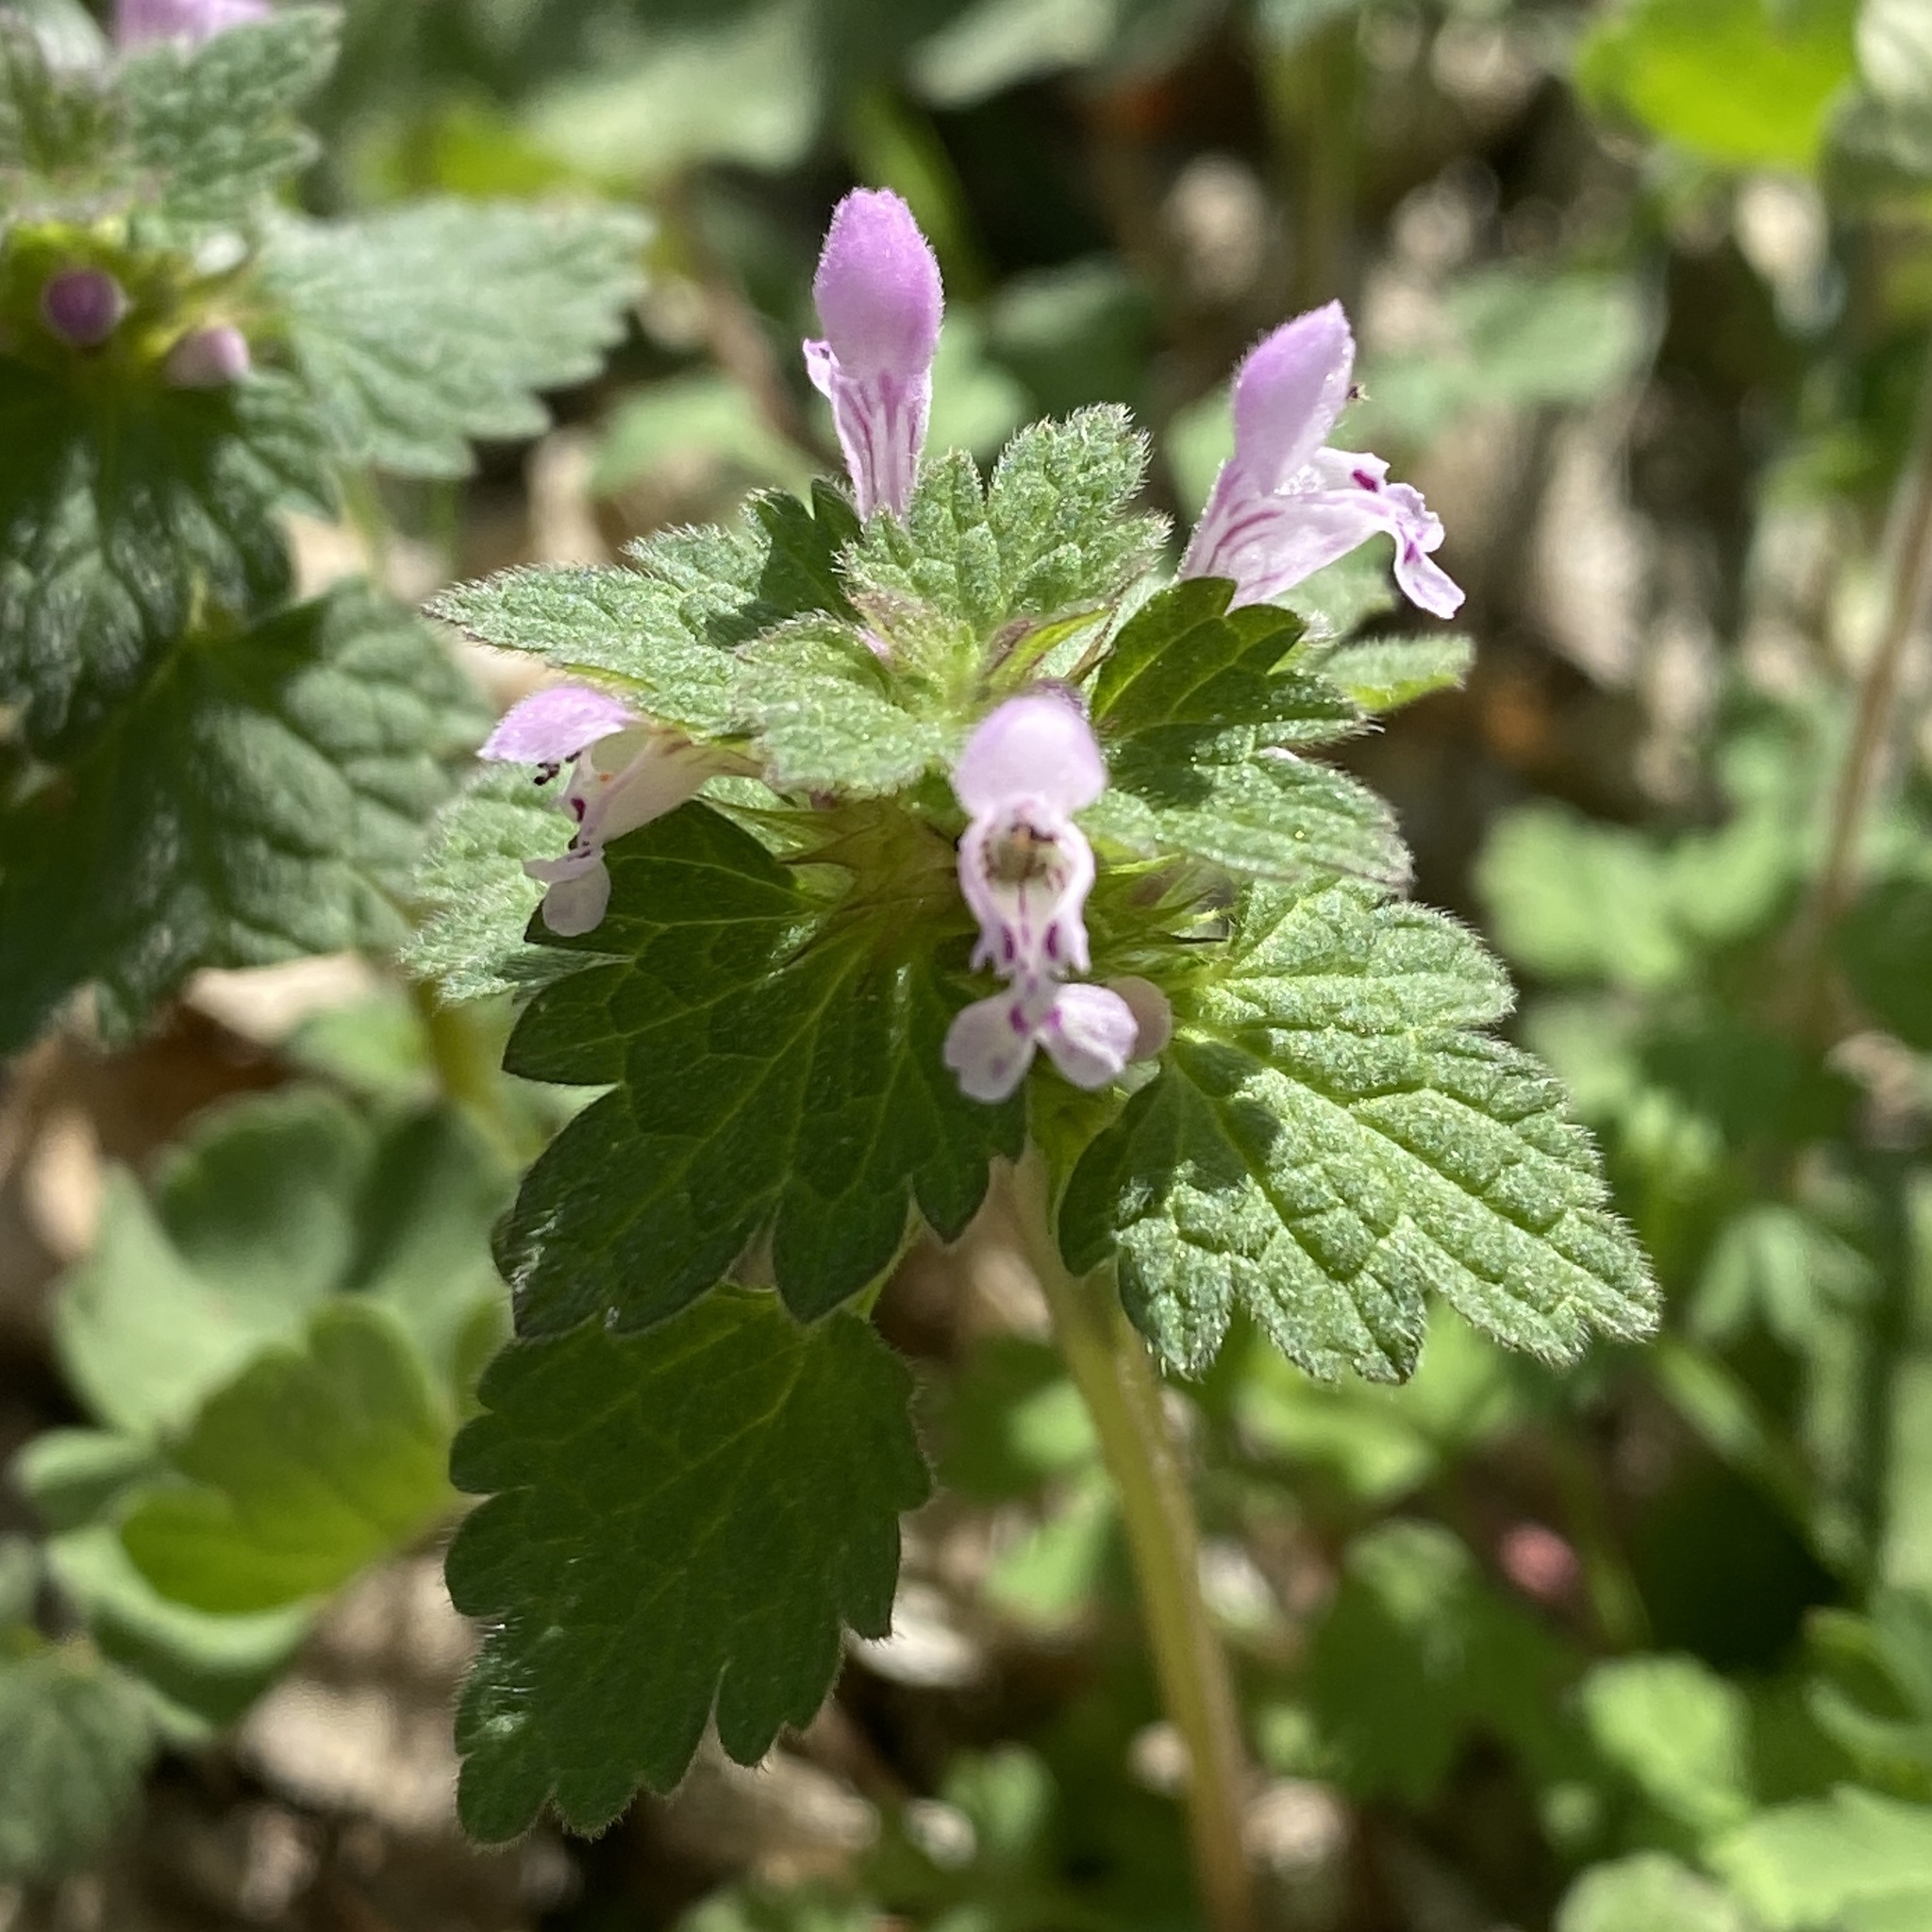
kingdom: Plantae
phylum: Tracheophyta
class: Magnoliopsida
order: Lamiales
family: Lamiaceae
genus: Lamium
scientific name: Lamium hybridum
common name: Cut-leaved dead-nettle
